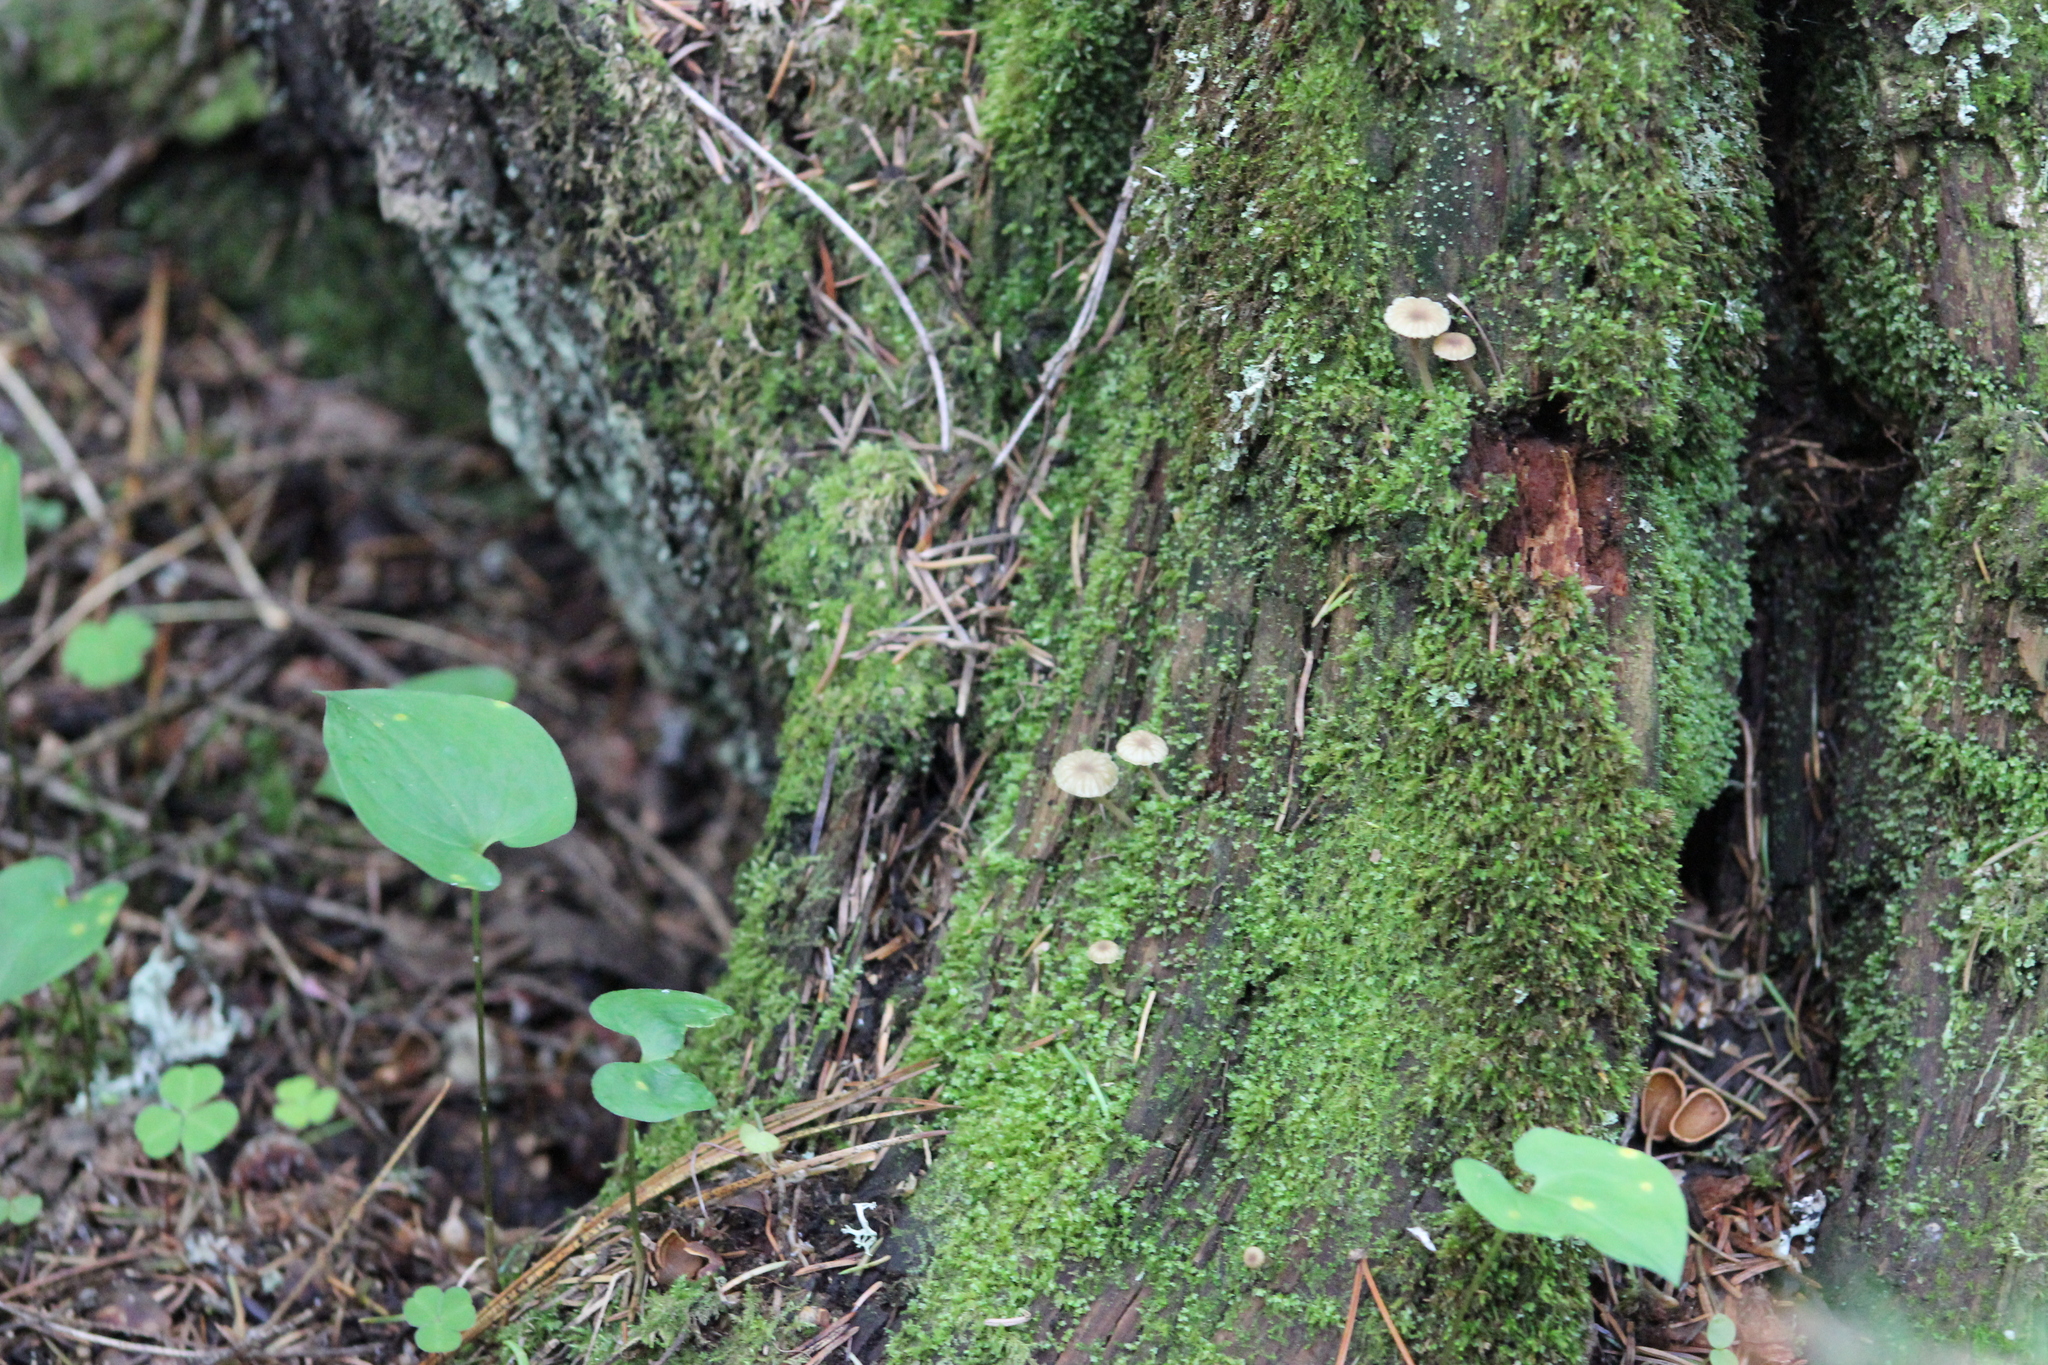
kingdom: Fungi
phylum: Basidiomycota
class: Agaricomycetes
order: Agaricales
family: Hygrophoraceae
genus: Lichenomphalia
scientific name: Lichenomphalia
